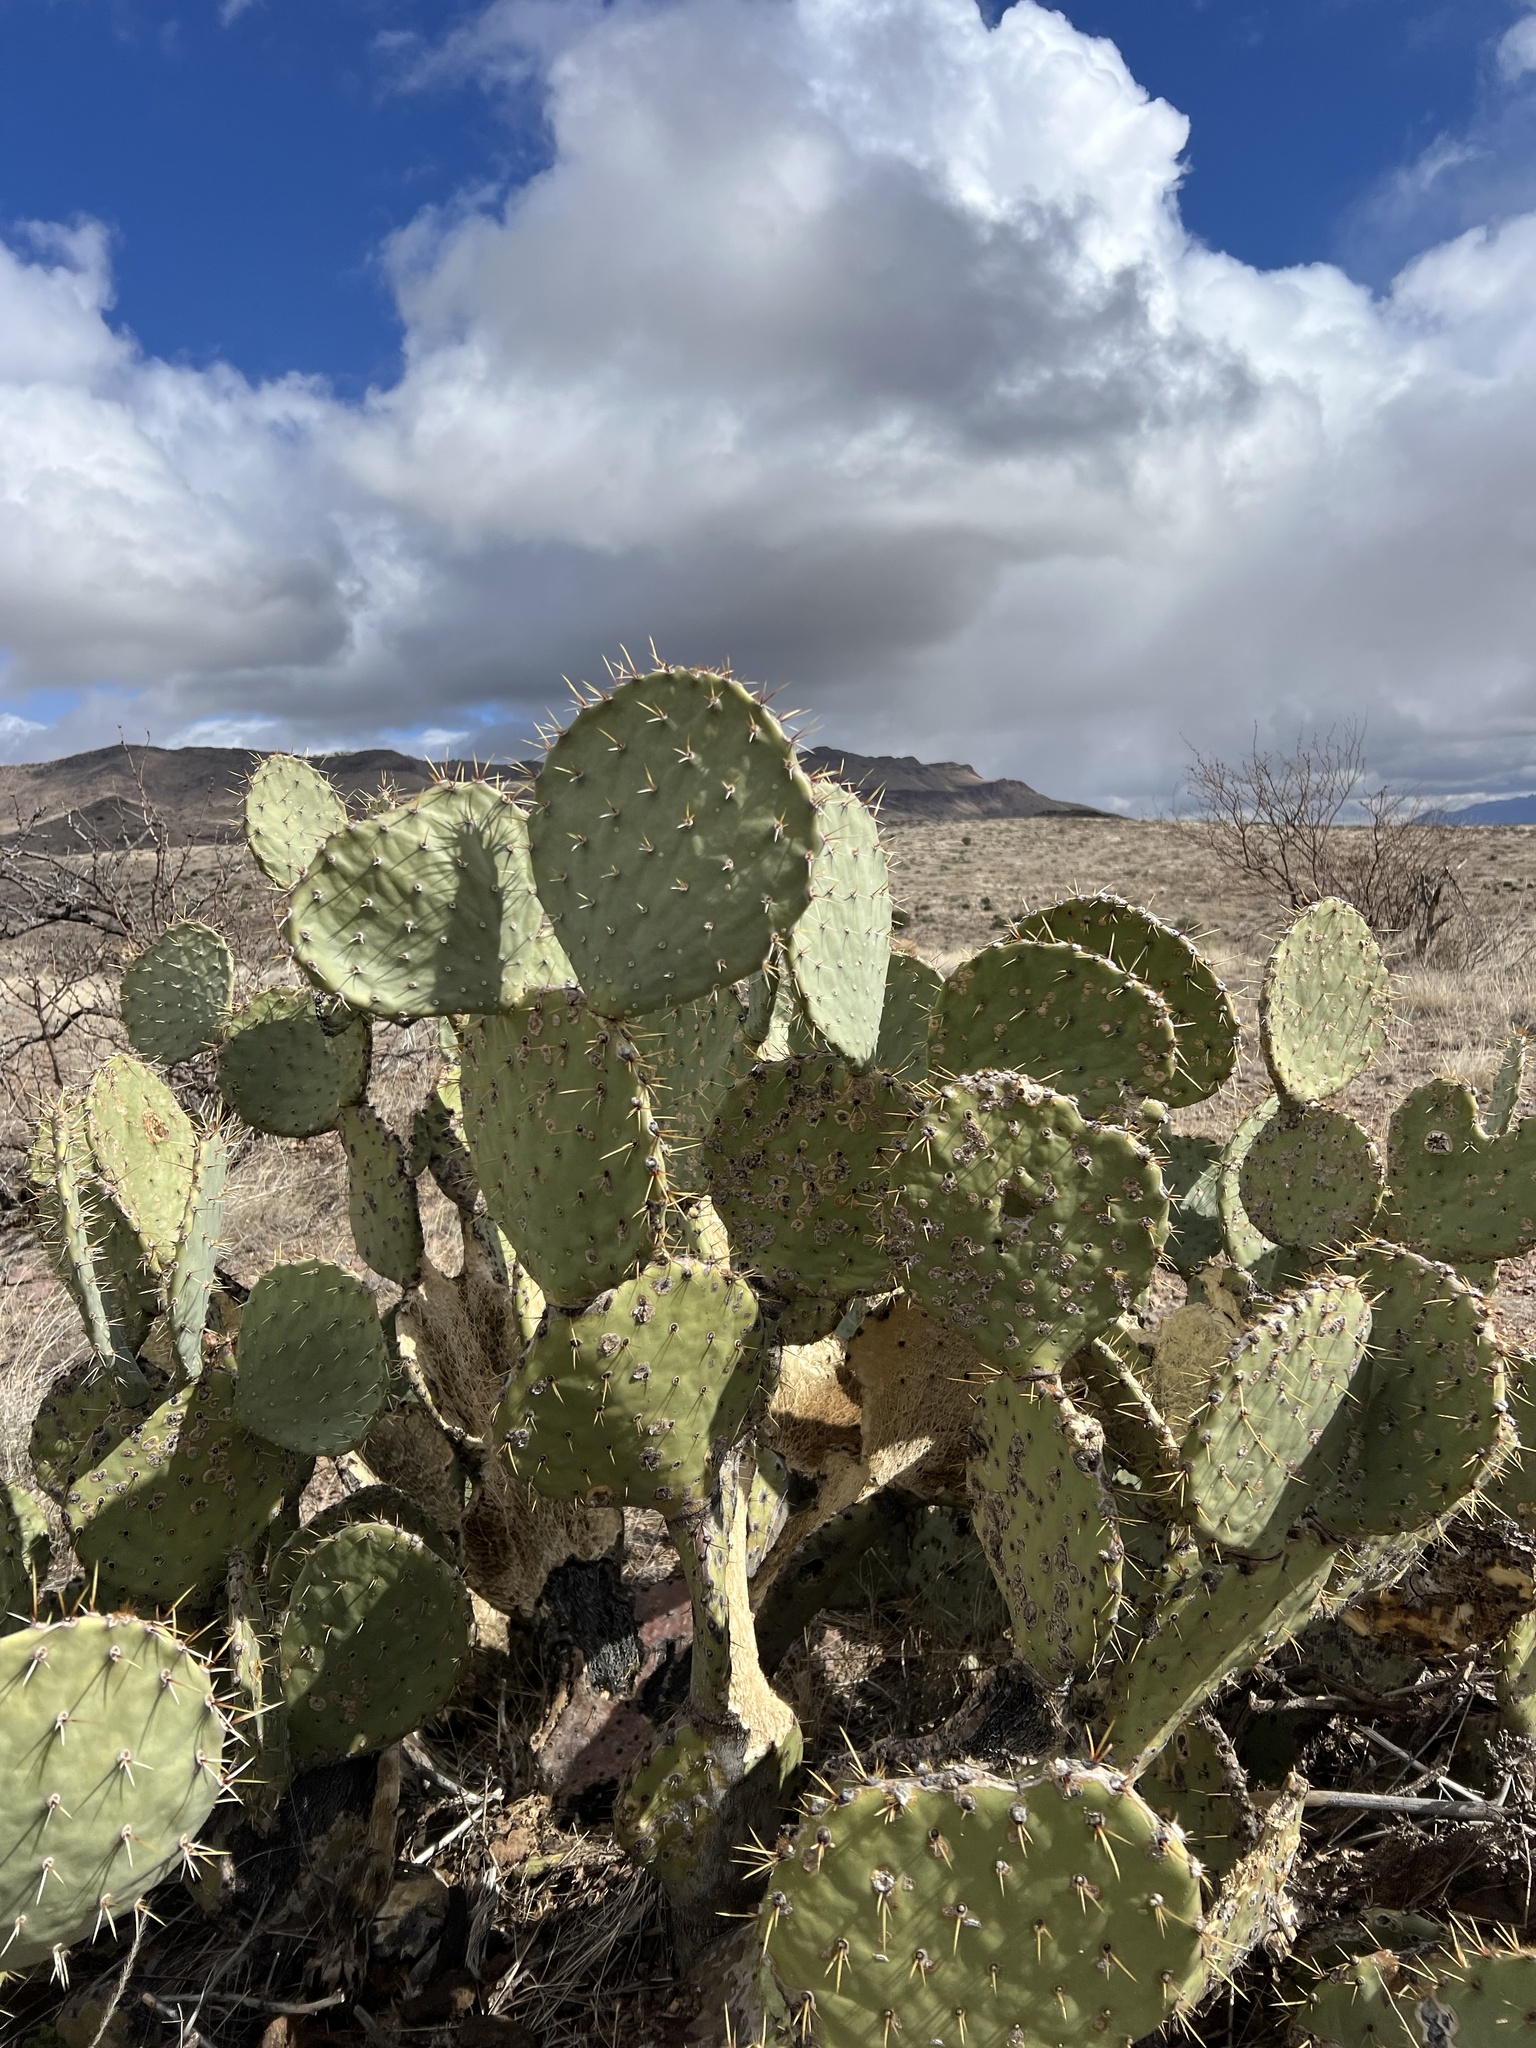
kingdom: Plantae
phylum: Tracheophyta
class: Magnoliopsida
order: Caryophyllales
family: Cactaceae
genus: Opuntia
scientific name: Opuntia engelmannii
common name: Cactus-apple
